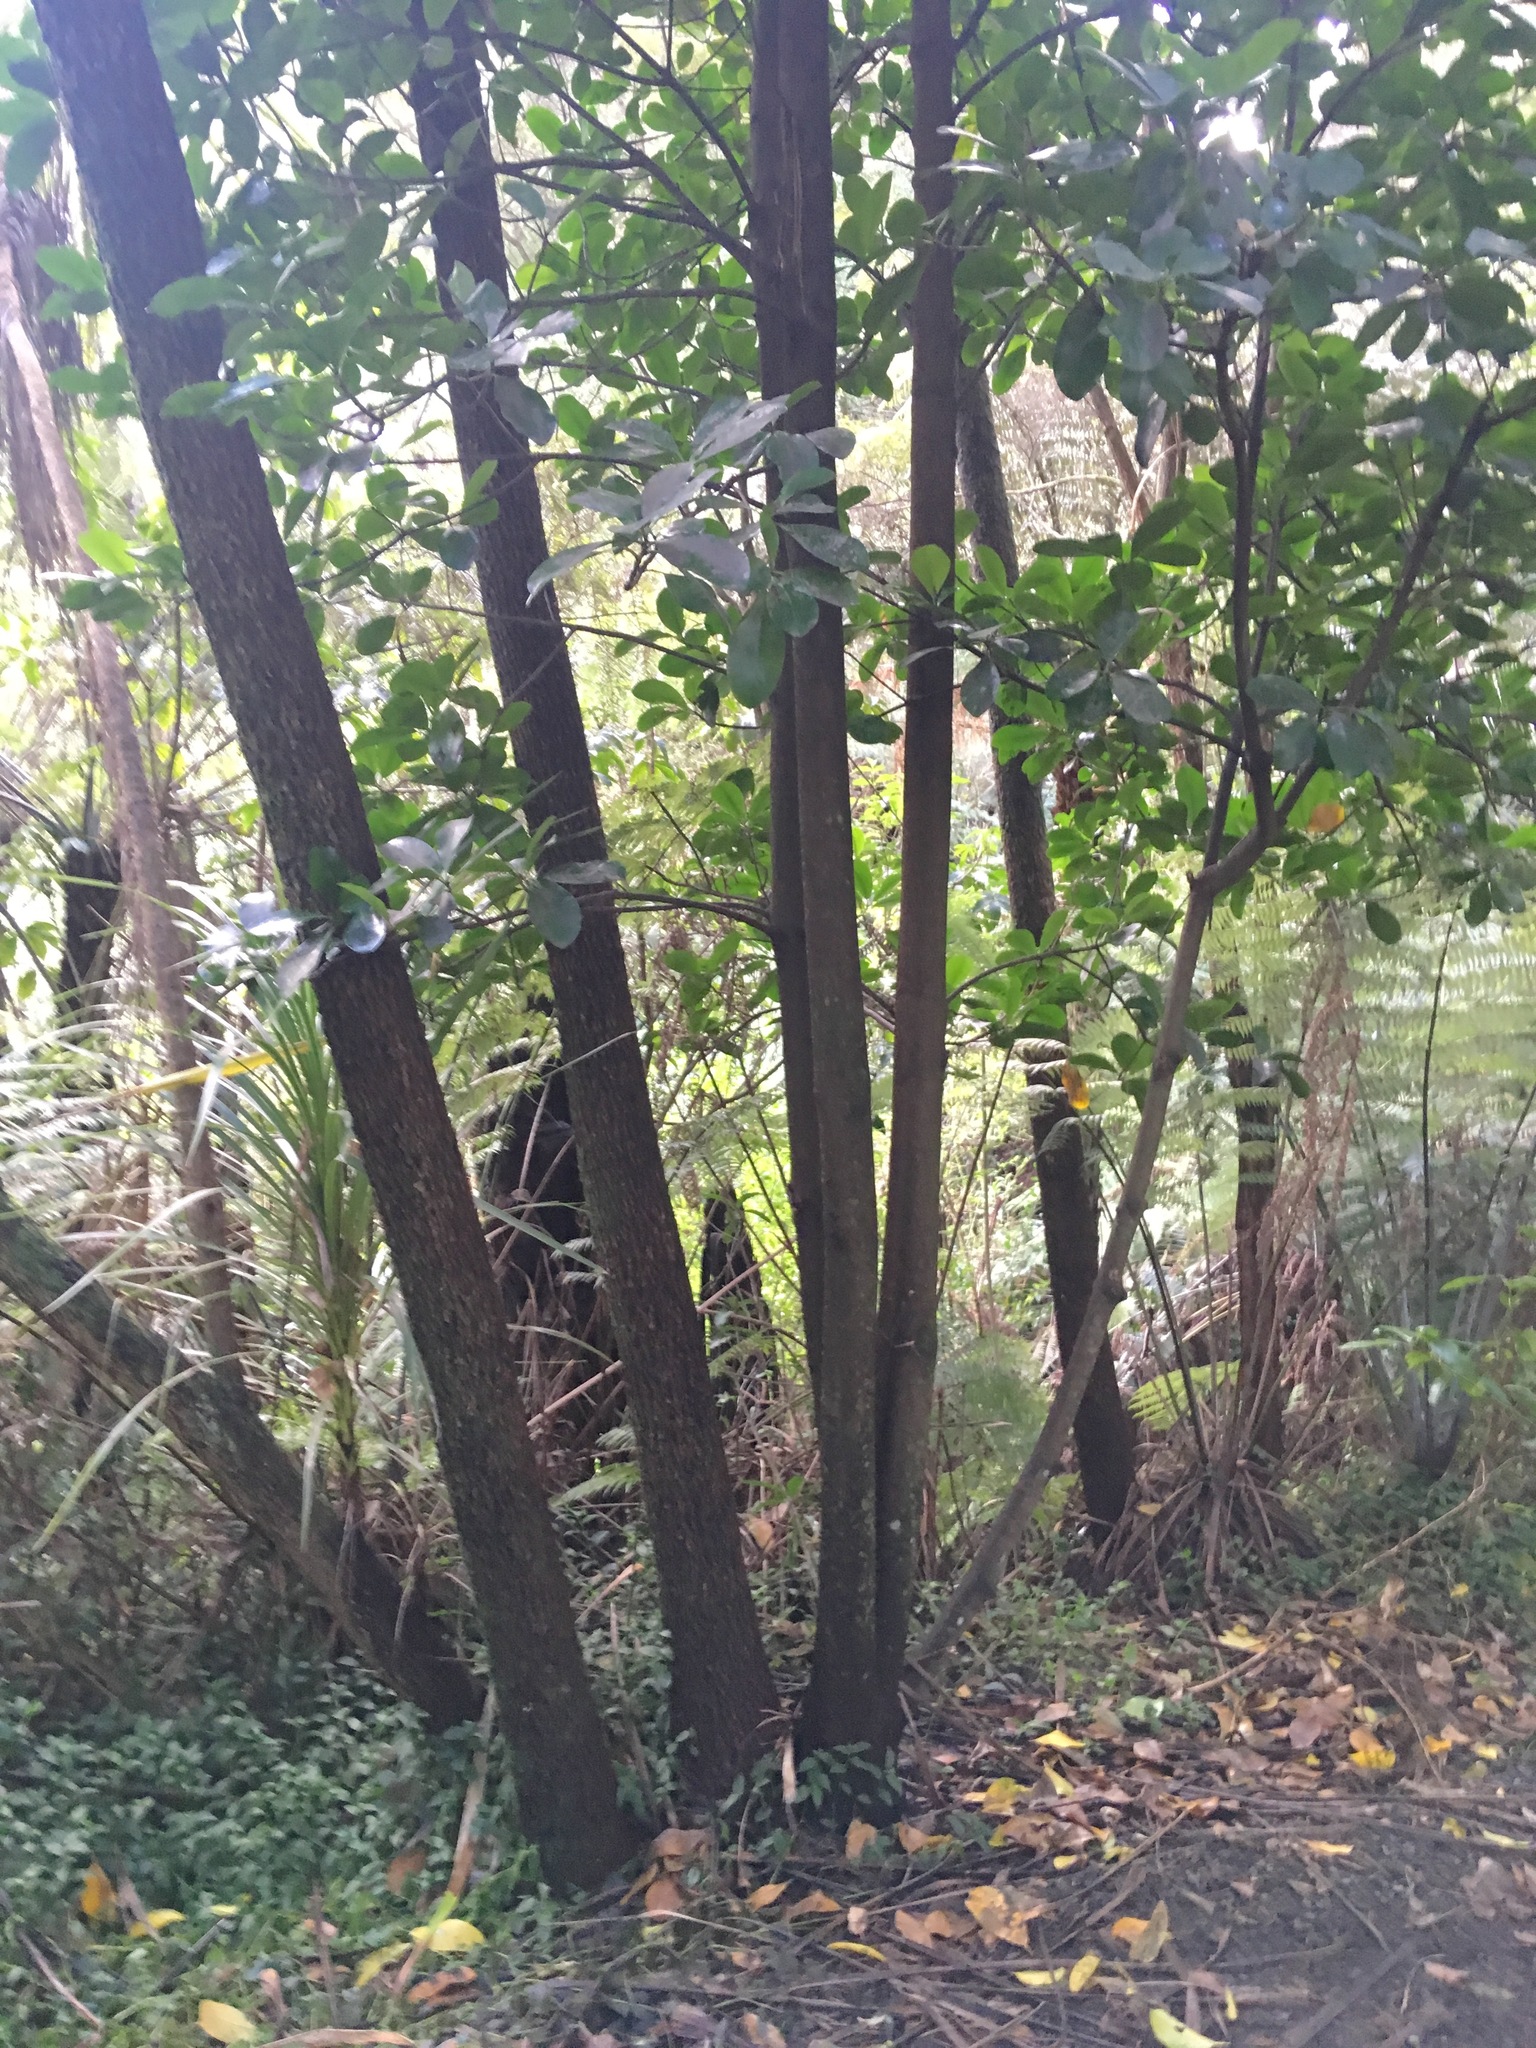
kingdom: Plantae
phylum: Tracheophyta
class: Magnoliopsida
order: Cucurbitales
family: Corynocarpaceae
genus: Corynocarpus
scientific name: Corynocarpus laevigatus
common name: New zealand laurel
